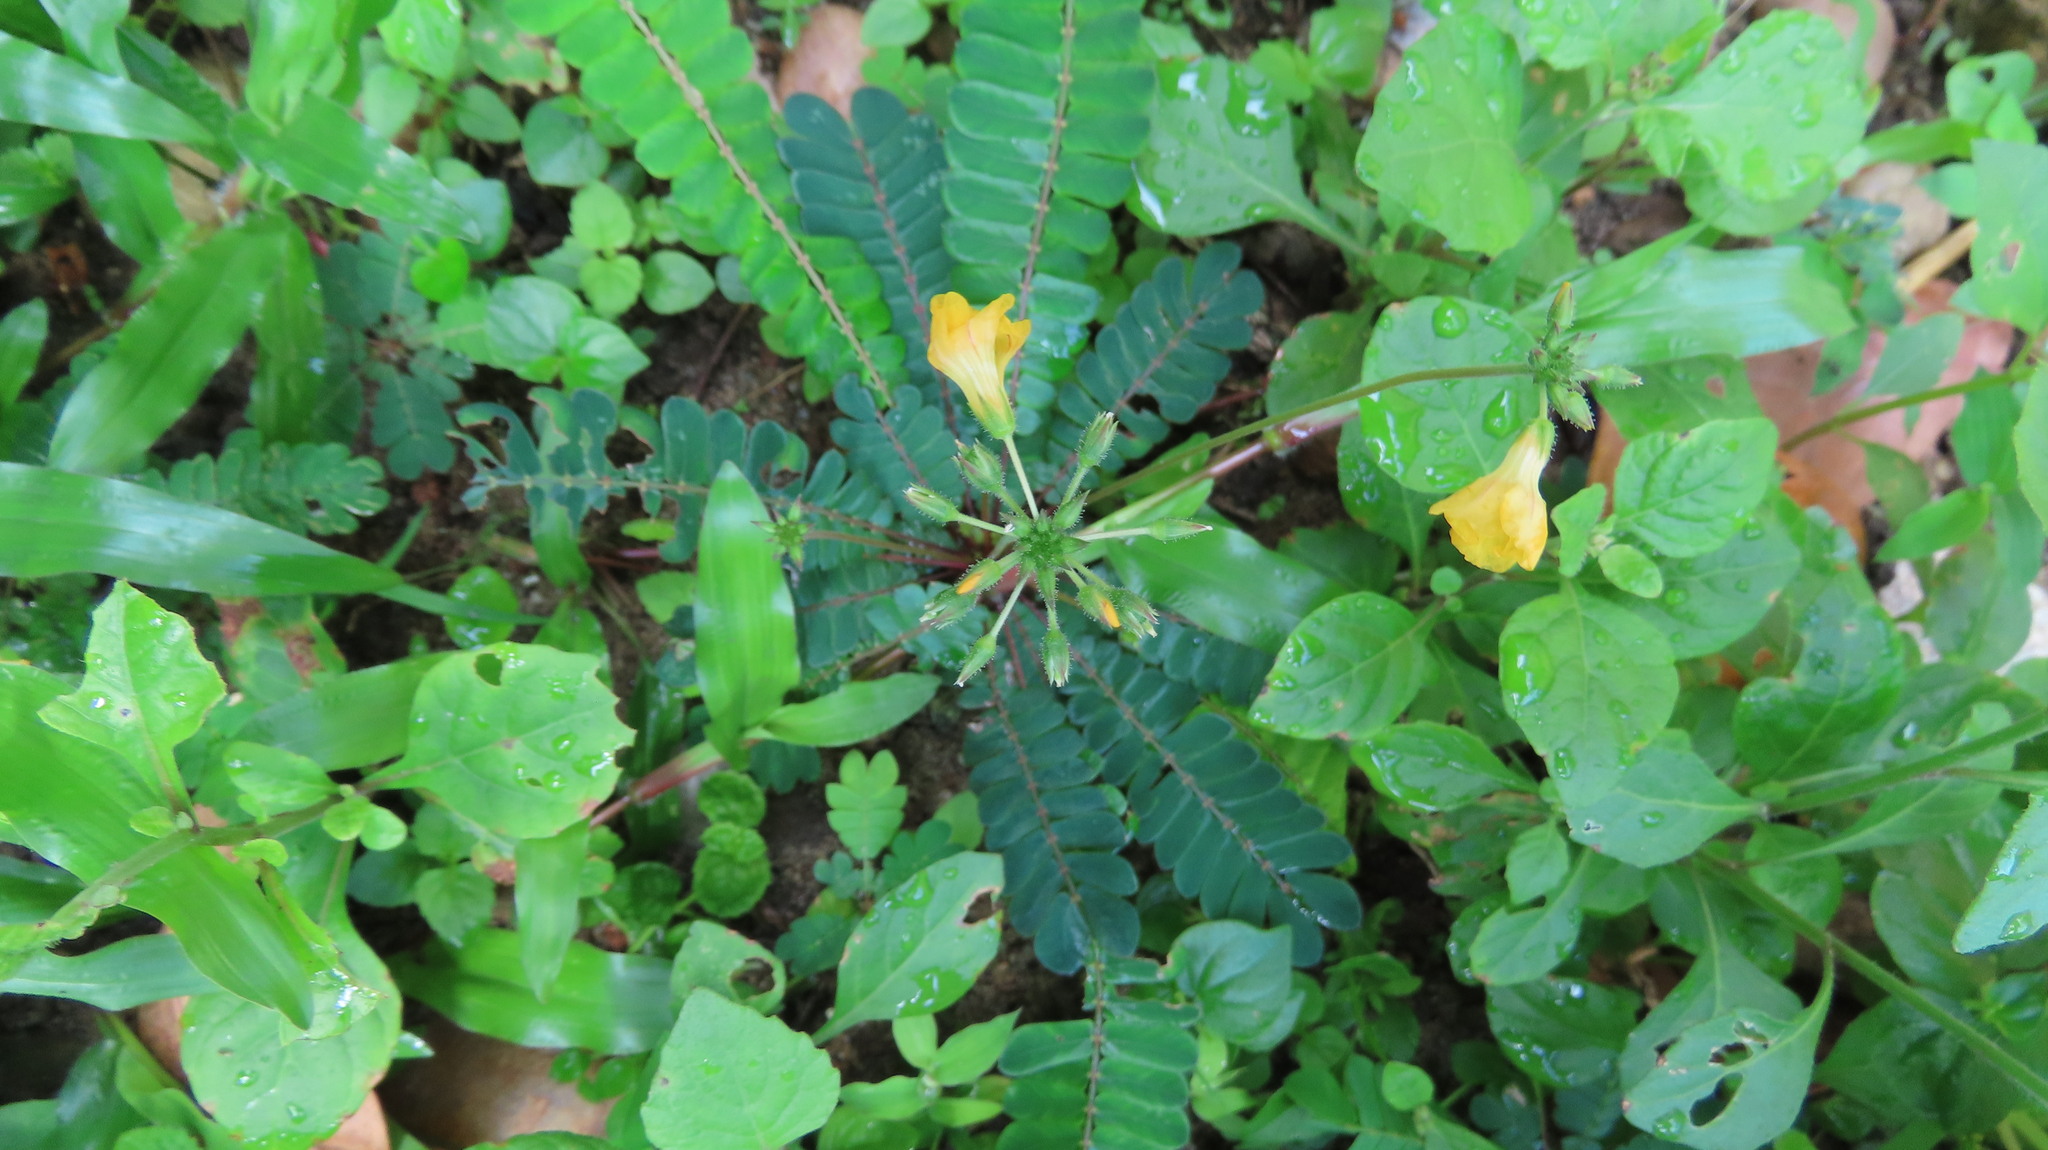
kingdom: Plantae
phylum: Tracheophyta
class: Magnoliopsida
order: Oxalidales
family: Oxalidaceae
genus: Biophytum
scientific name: Biophytum sensitivum
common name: Lifeplant
